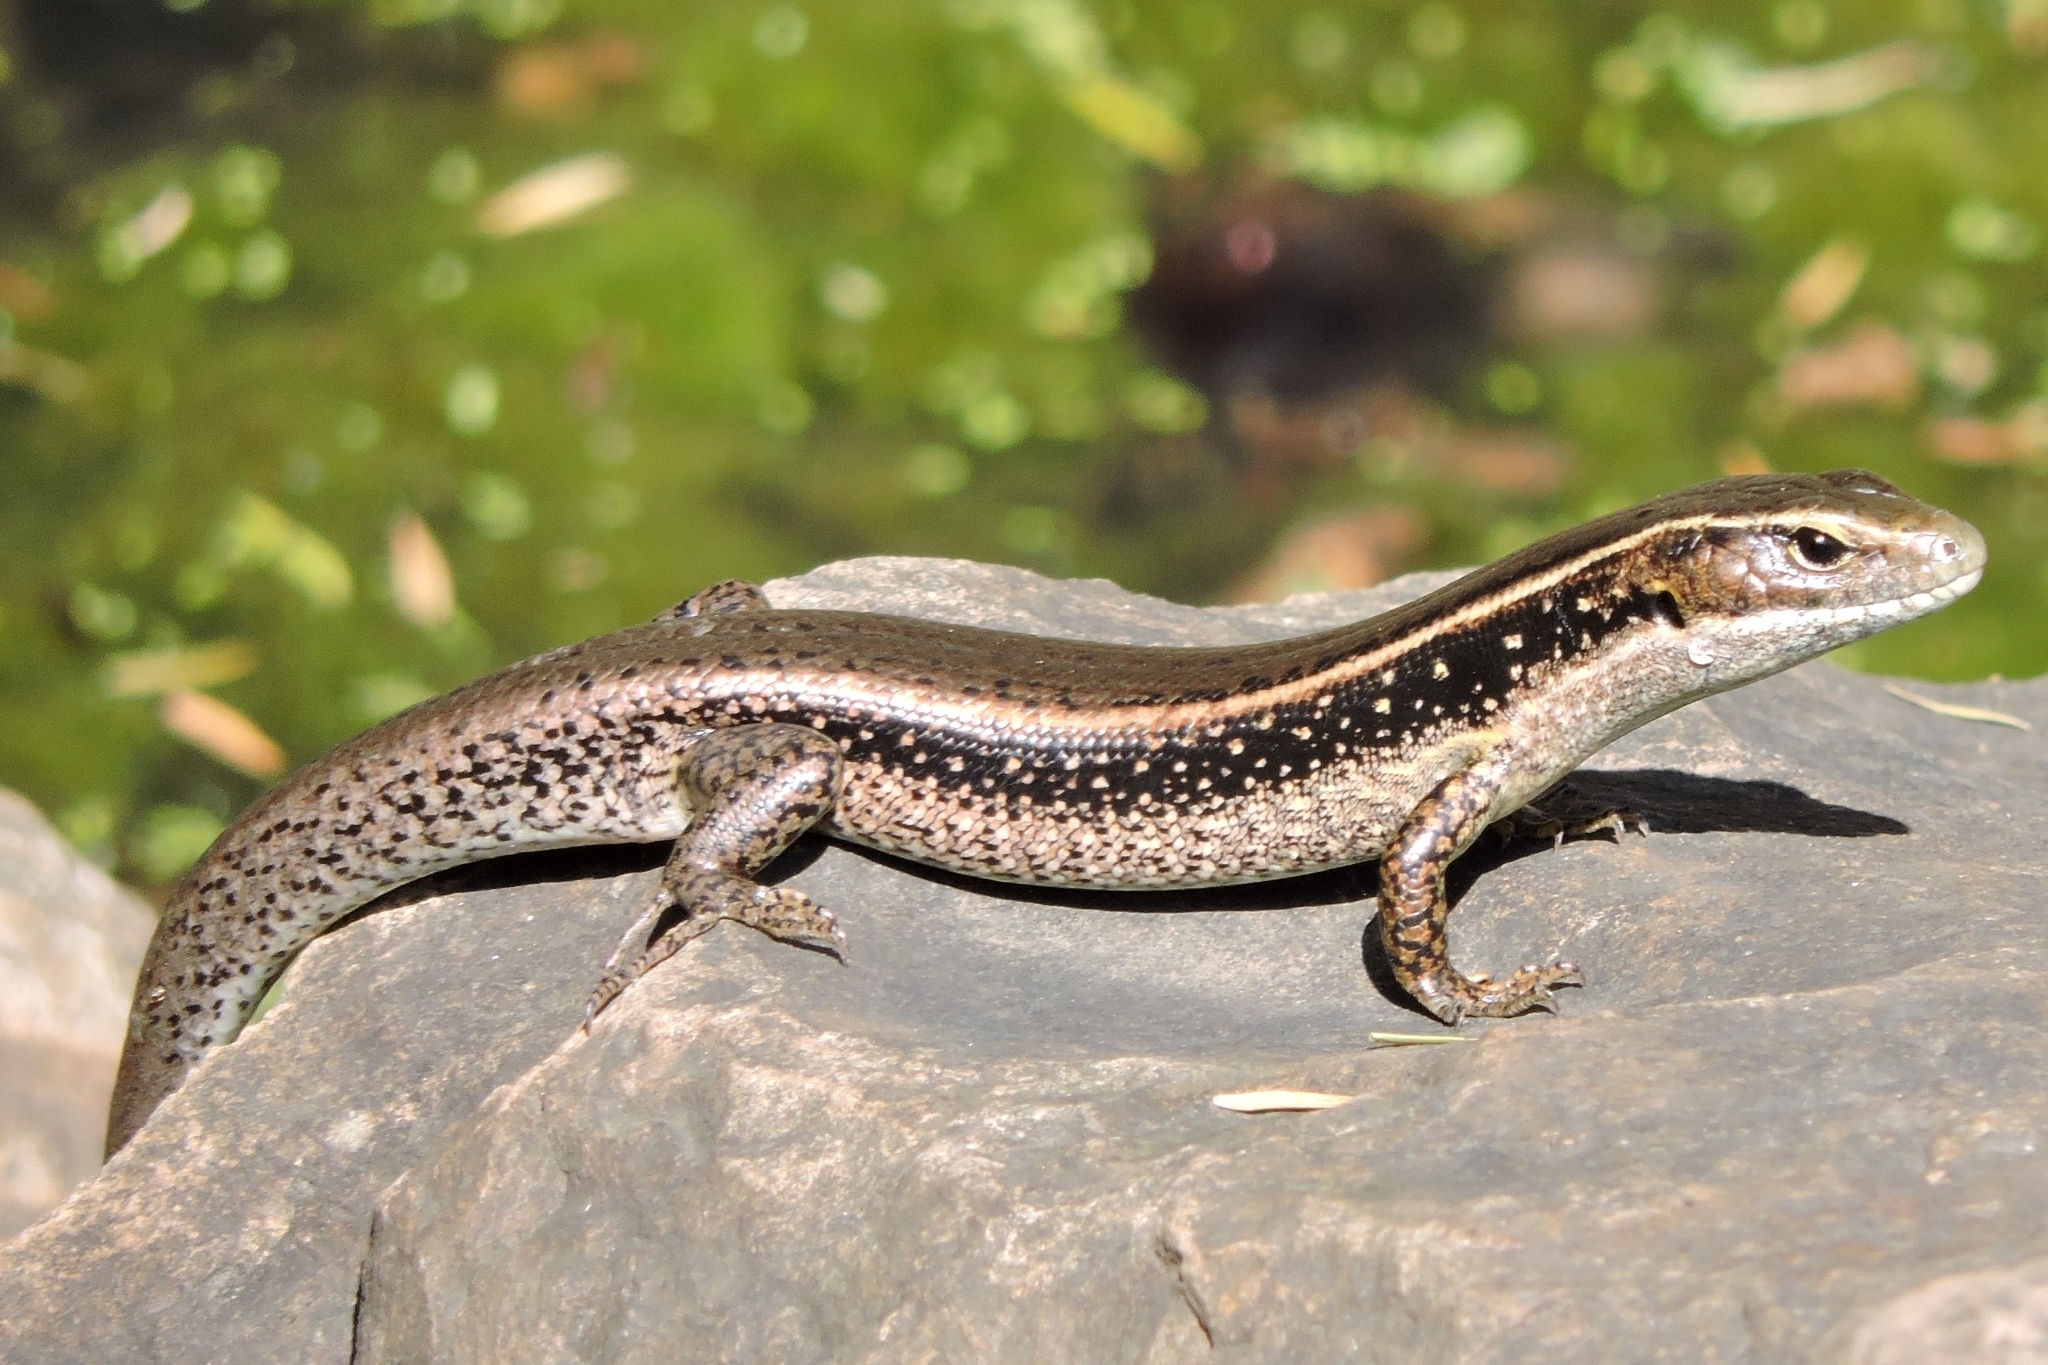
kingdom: Animalia
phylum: Chordata
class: Squamata
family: Scincidae
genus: Eulamprus
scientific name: Eulamprus quoyii
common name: Eastern water skink
